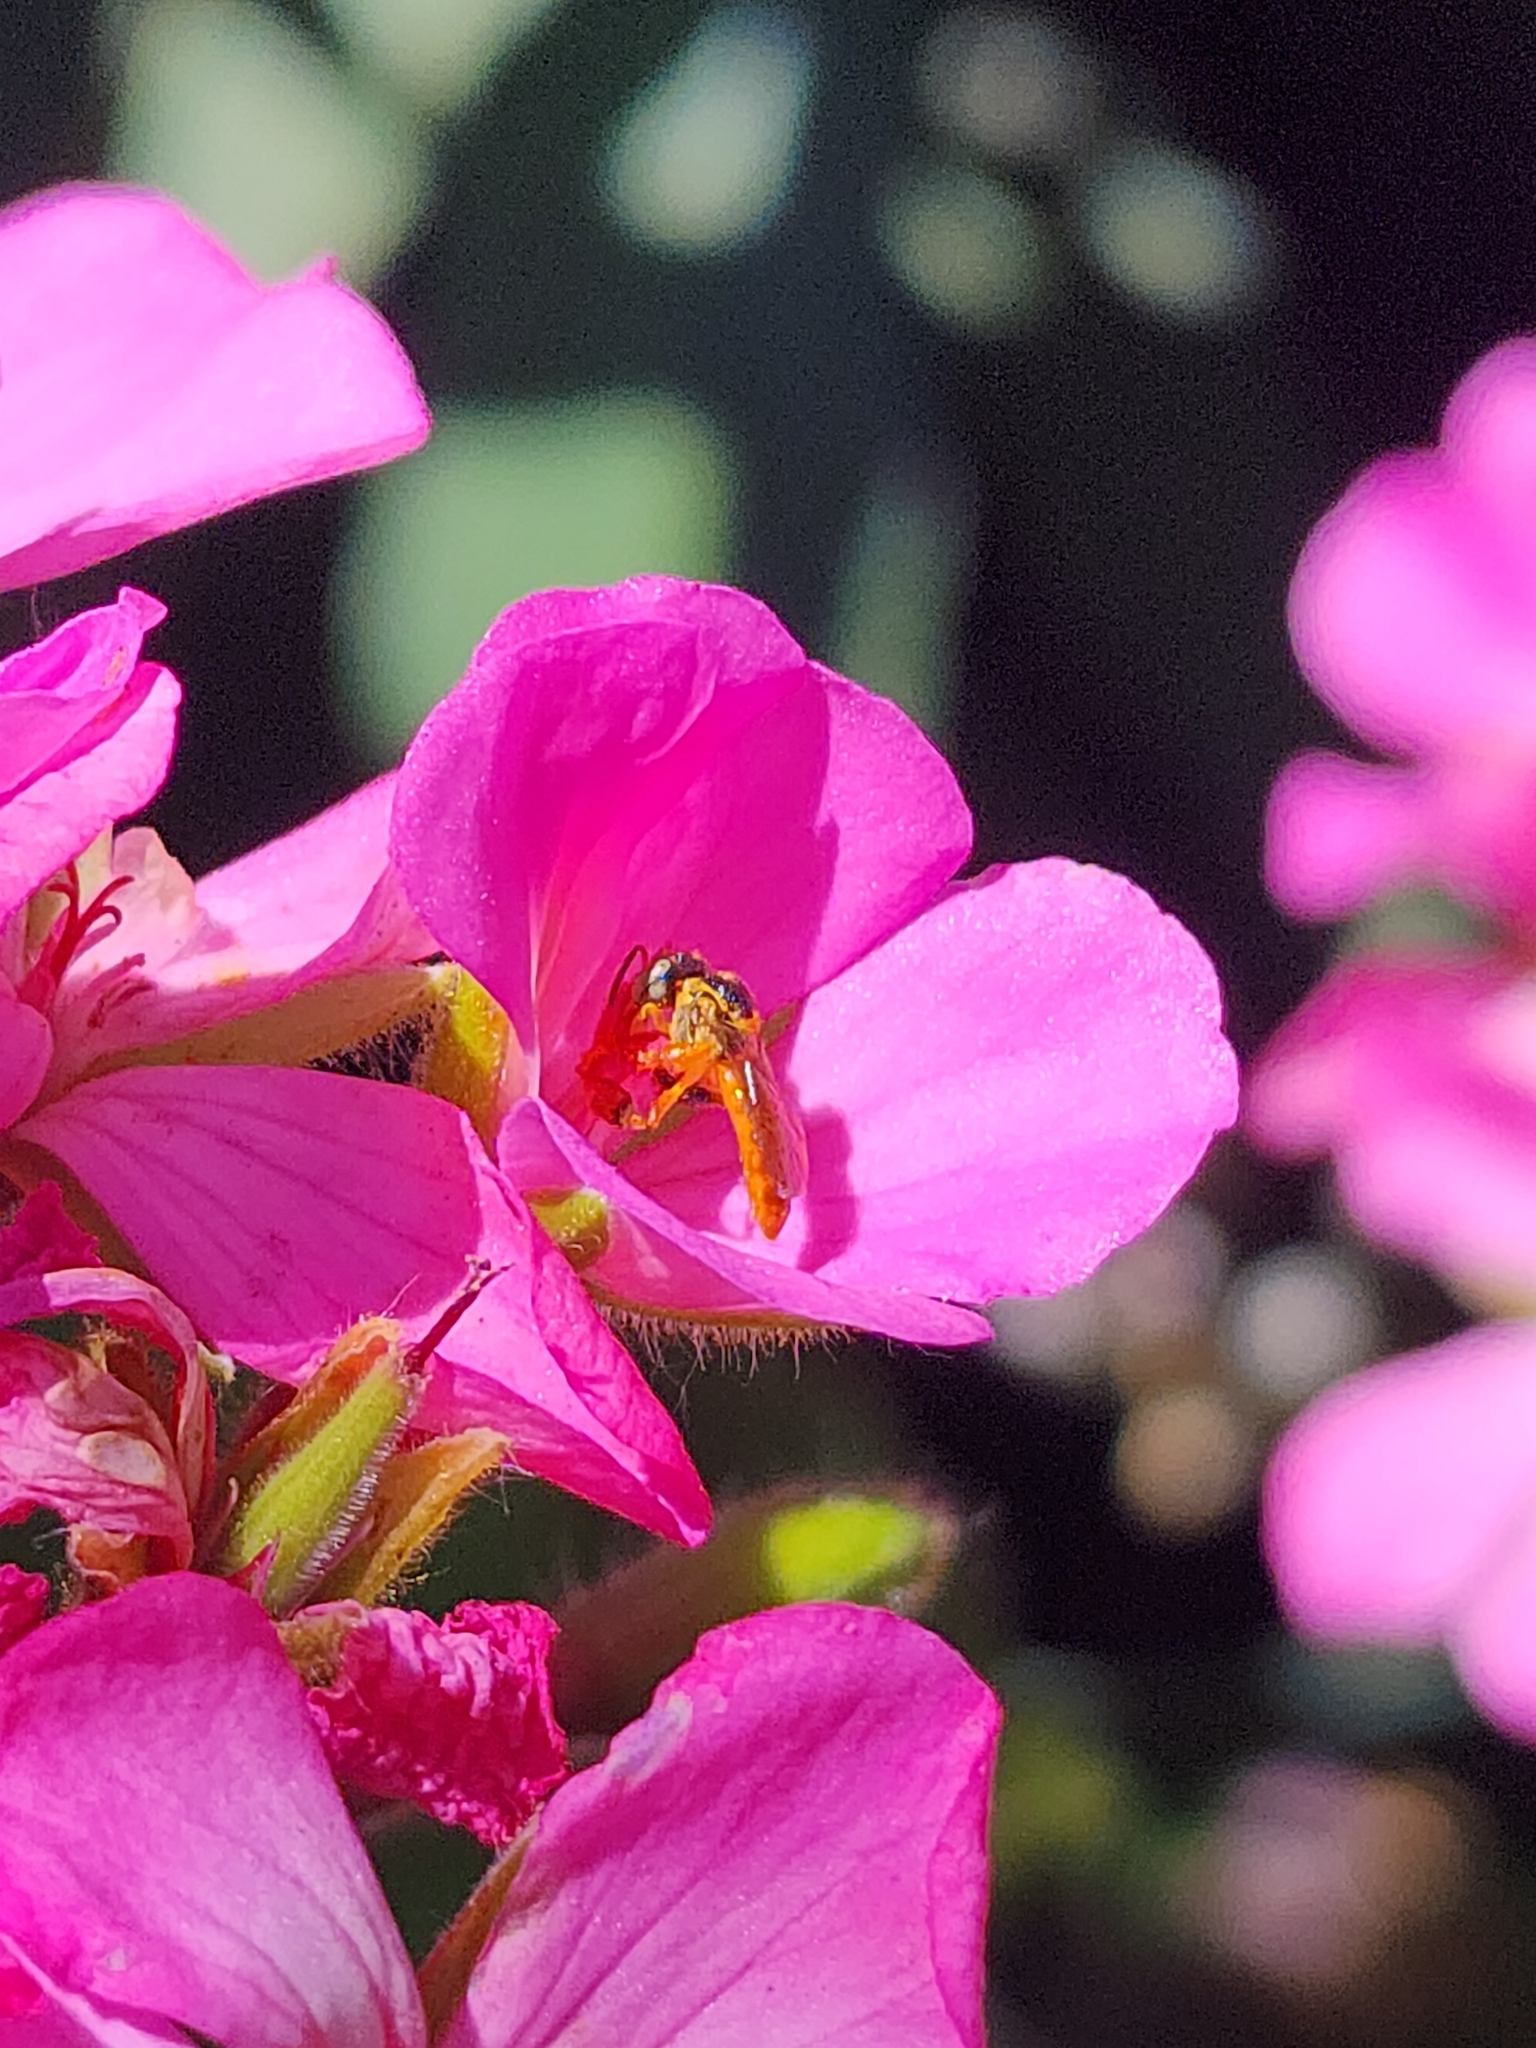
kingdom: Animalia
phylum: Arthropoda
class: Insecta
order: Hymenoptera
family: Apidae
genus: Tetragonisca
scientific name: Tetragonisca fiebrigi
